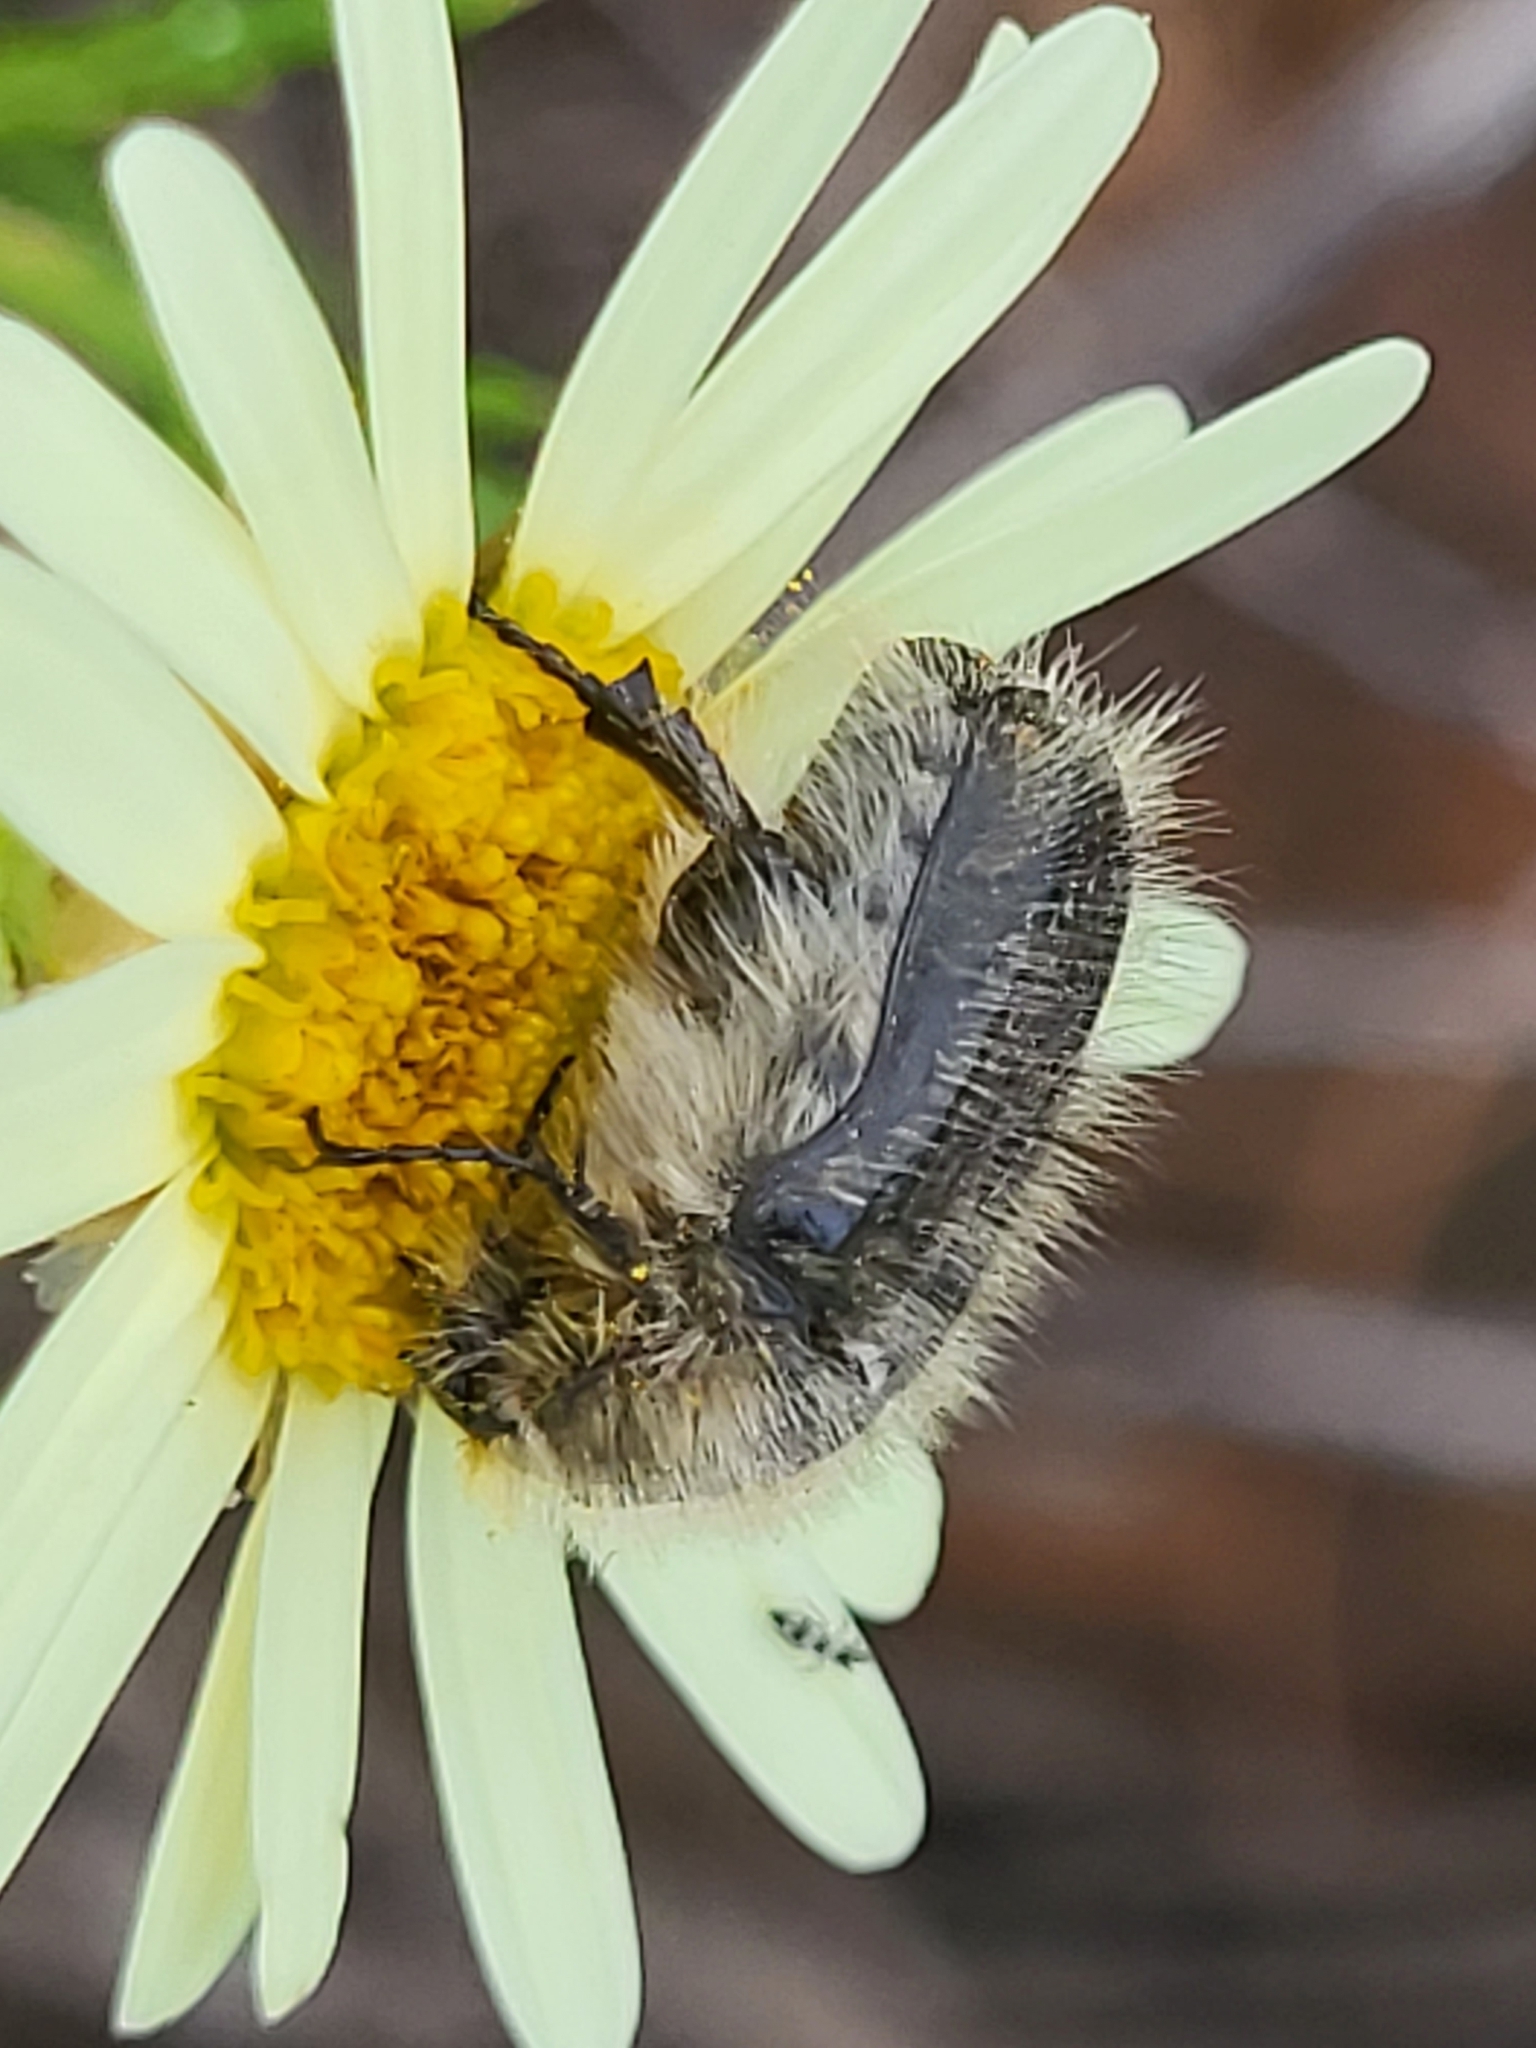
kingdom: Animalia
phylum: Arthropoda
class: Insecta
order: Coleoptera
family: Scarabaeidae
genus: Tropinota
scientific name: Tropinota squalida
